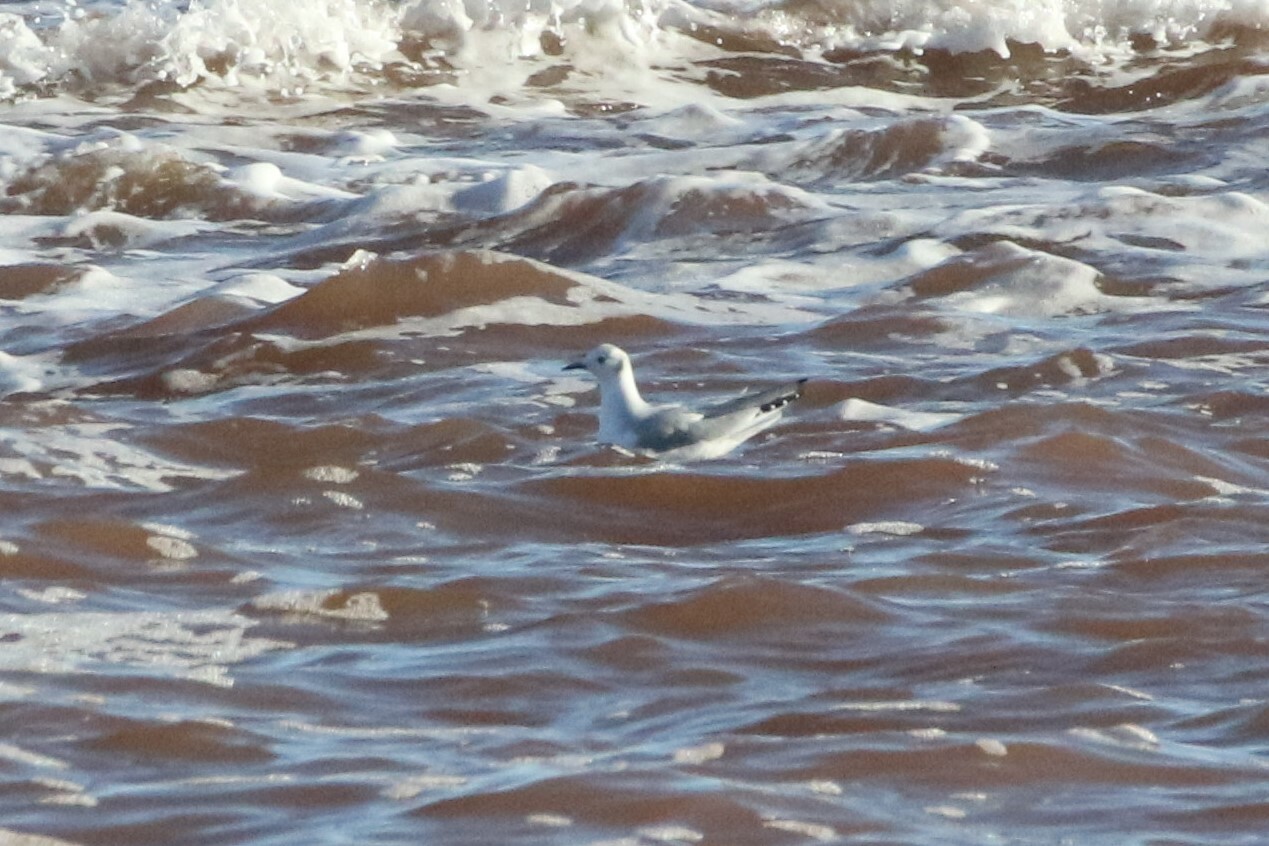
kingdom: Animalia
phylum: Chordata
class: Aves
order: Charadriiformes
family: Laridae
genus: Chroicocephalus
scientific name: Chroicocephalus philadelphia
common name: Bonaparte's gull
